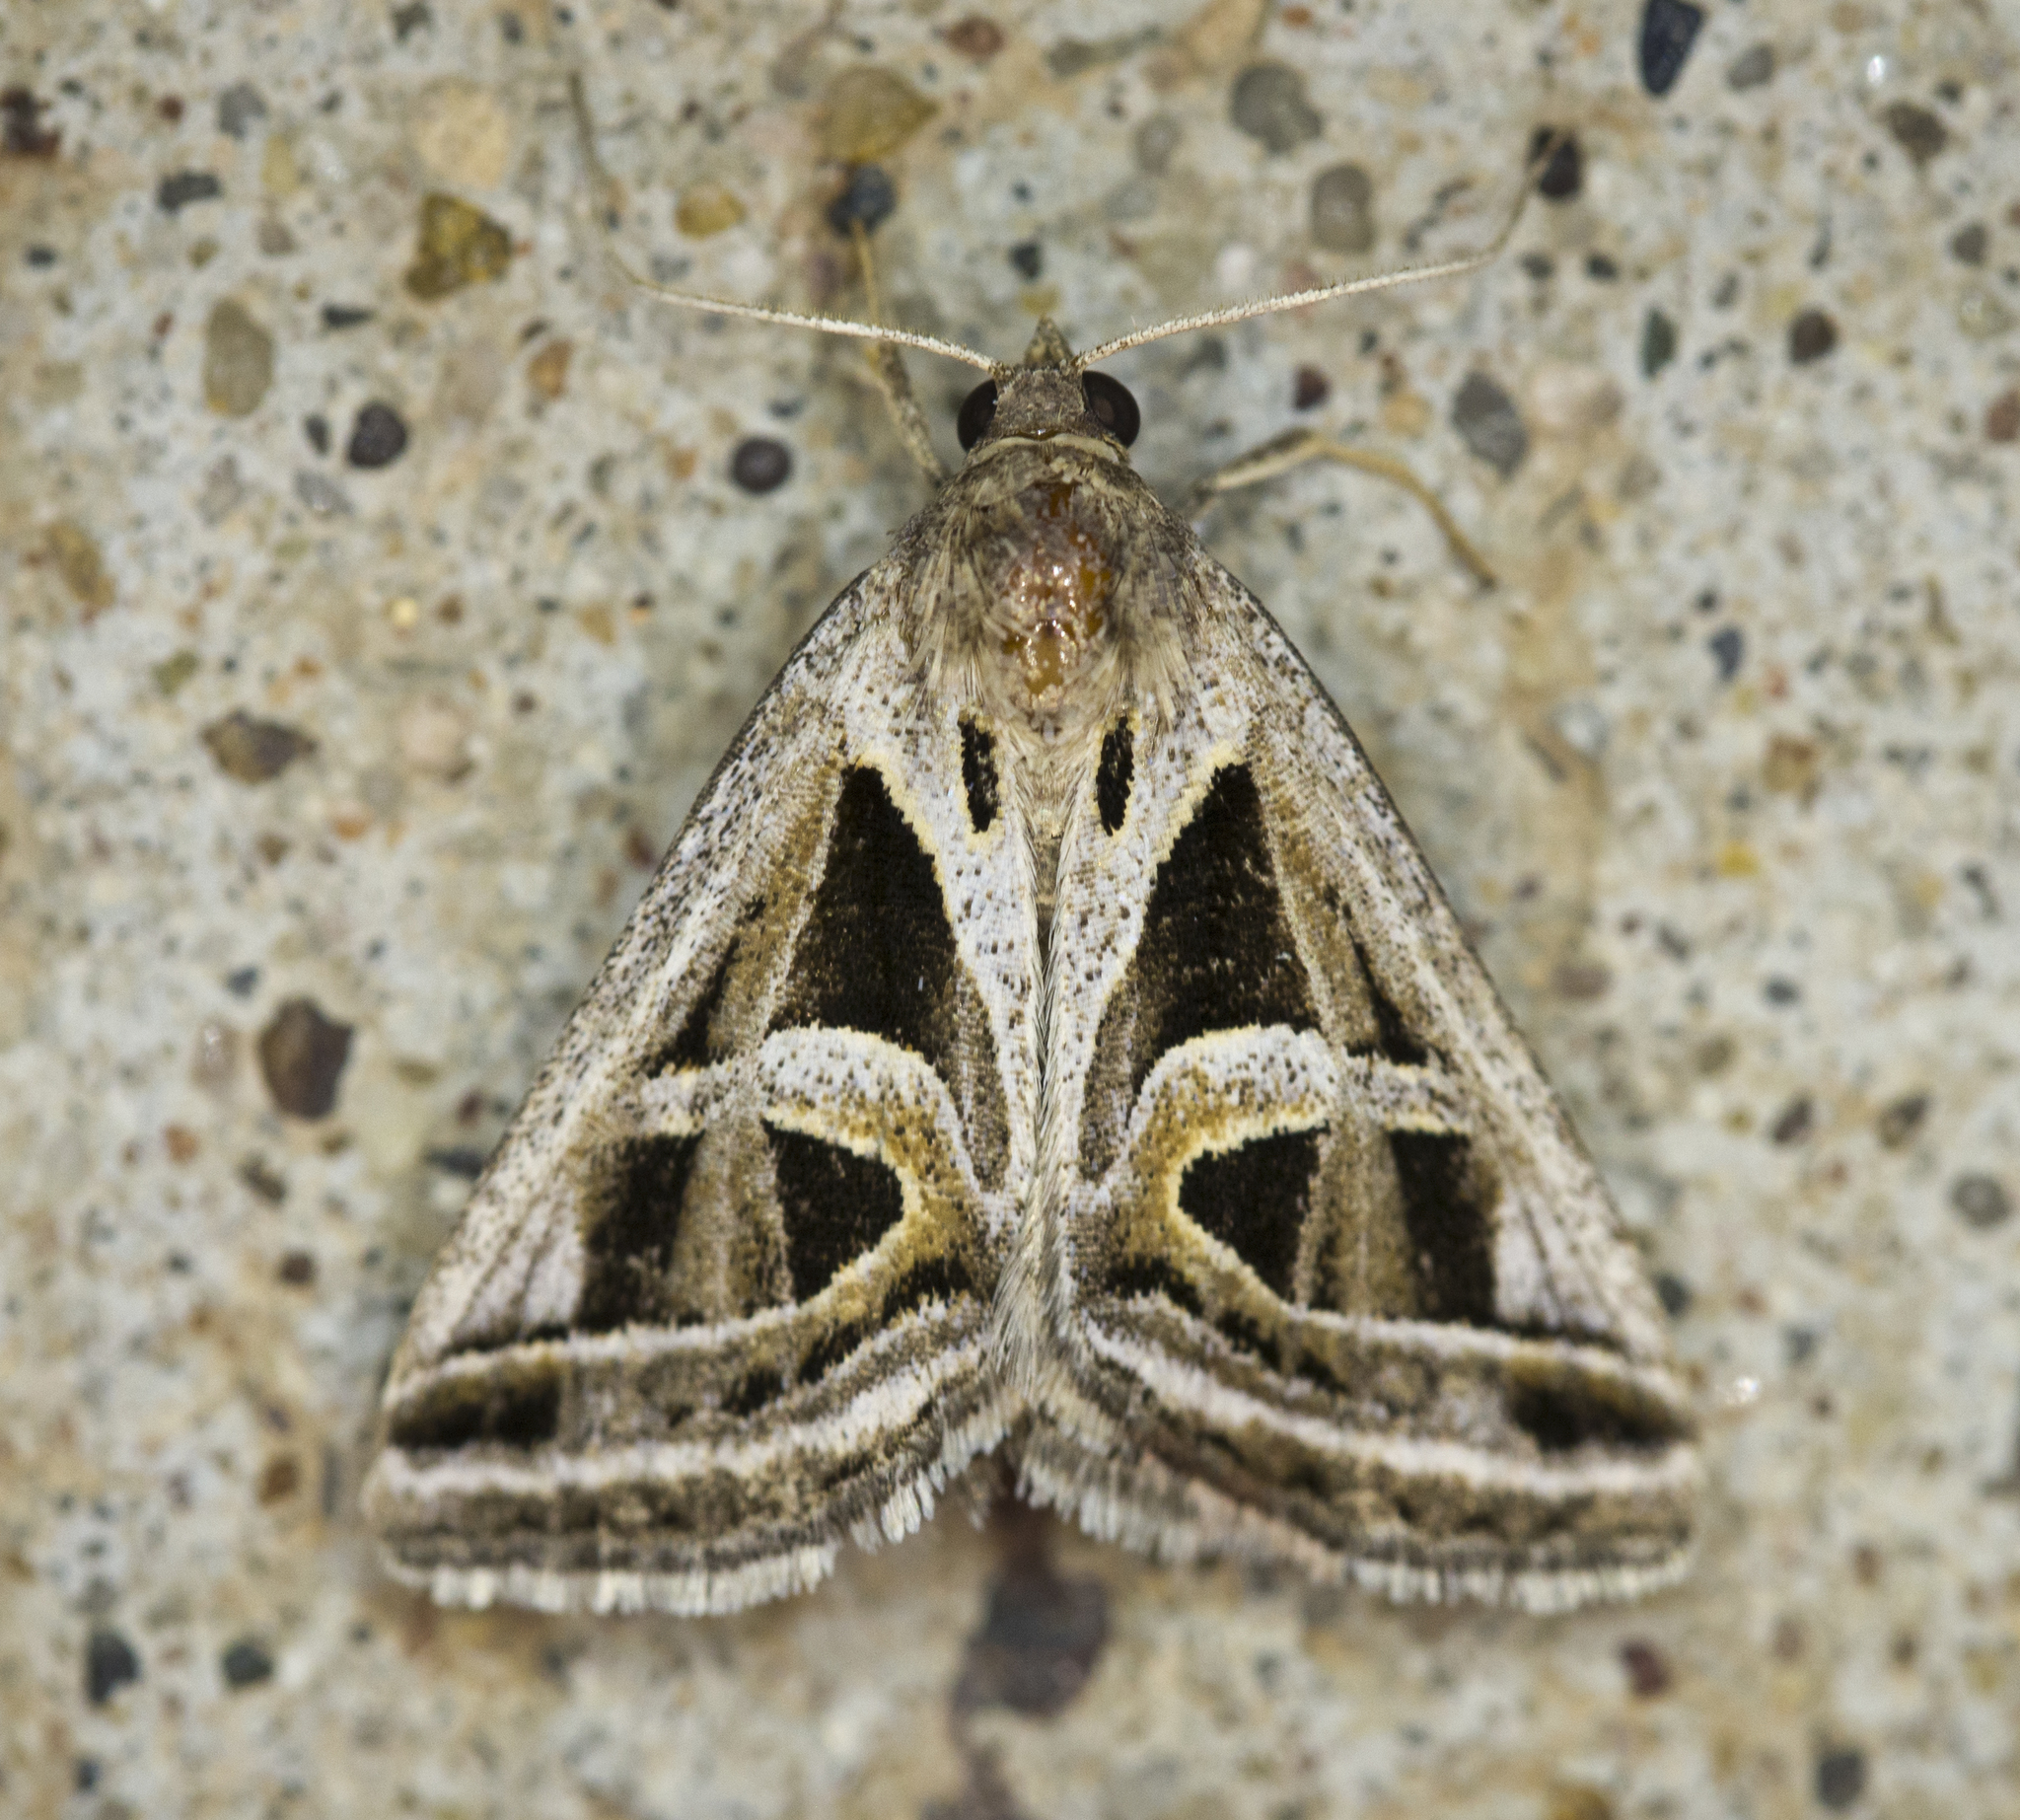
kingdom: Animalia
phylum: Arthropoda
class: Insecta
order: Lepidoptera
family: Erebidae
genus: Callistege
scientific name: Callistege intercalaris
